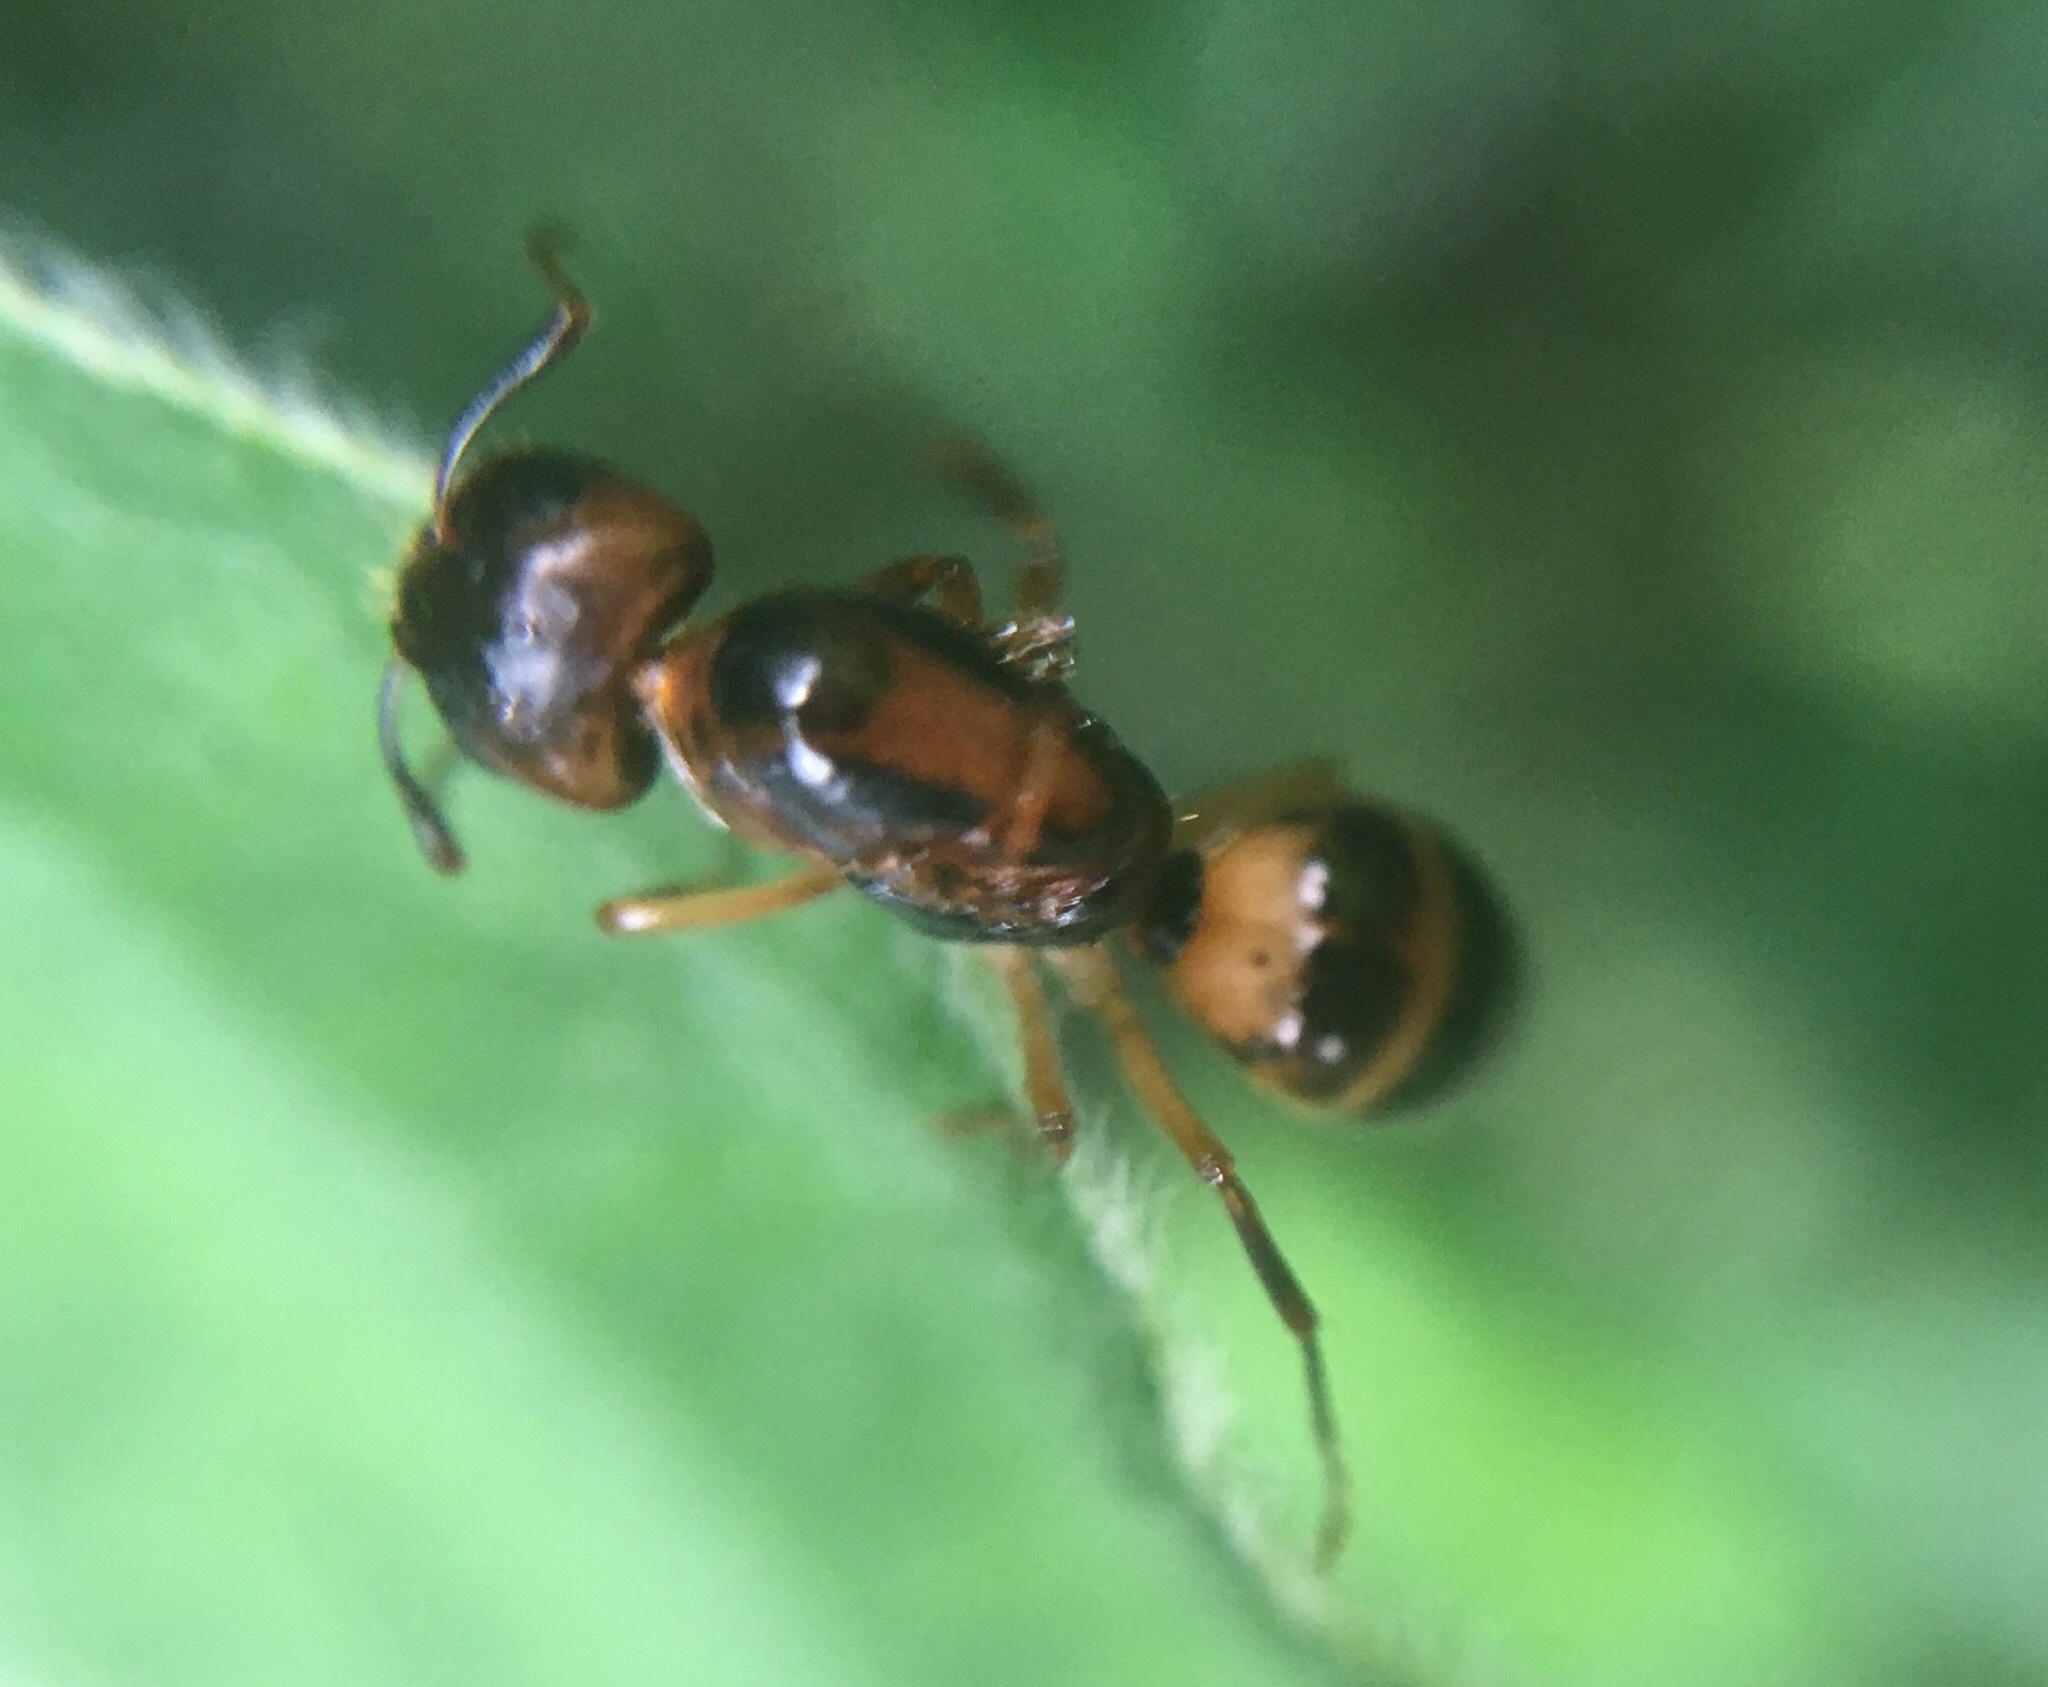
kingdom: Animalia
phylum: Arthropoda
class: Insecta
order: Hymenoptera
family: Formicidae
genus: Camponotus
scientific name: Camponotus subbarbatus
